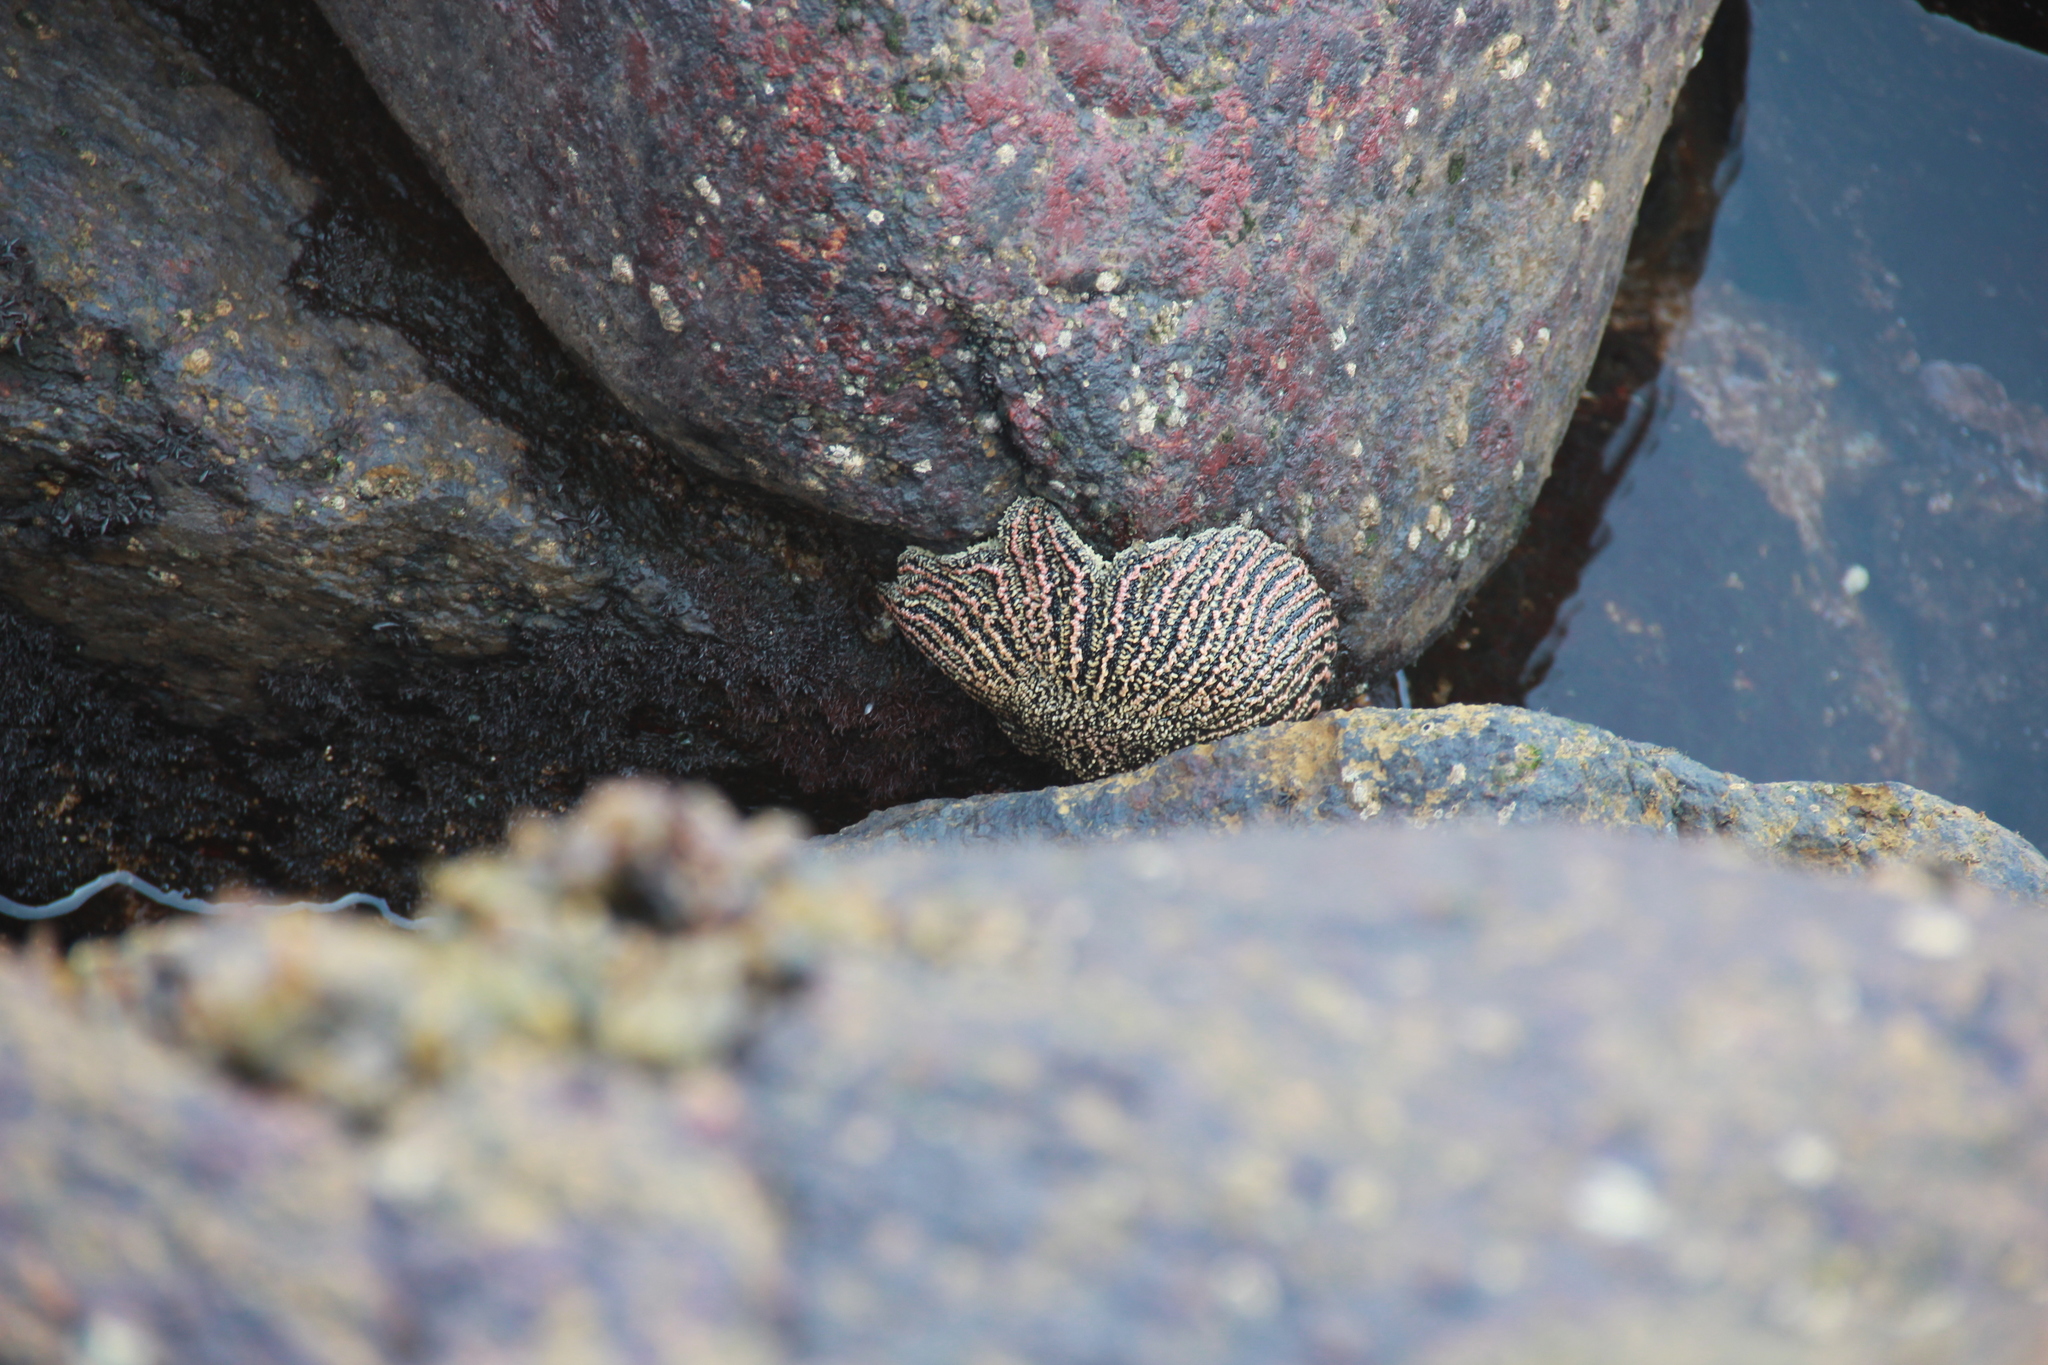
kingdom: Animalia
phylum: Echinodermata
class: Asteroidea
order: Forcipulatida
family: Heliasteridae
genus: Heliaster
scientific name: Heliaster helianthus
